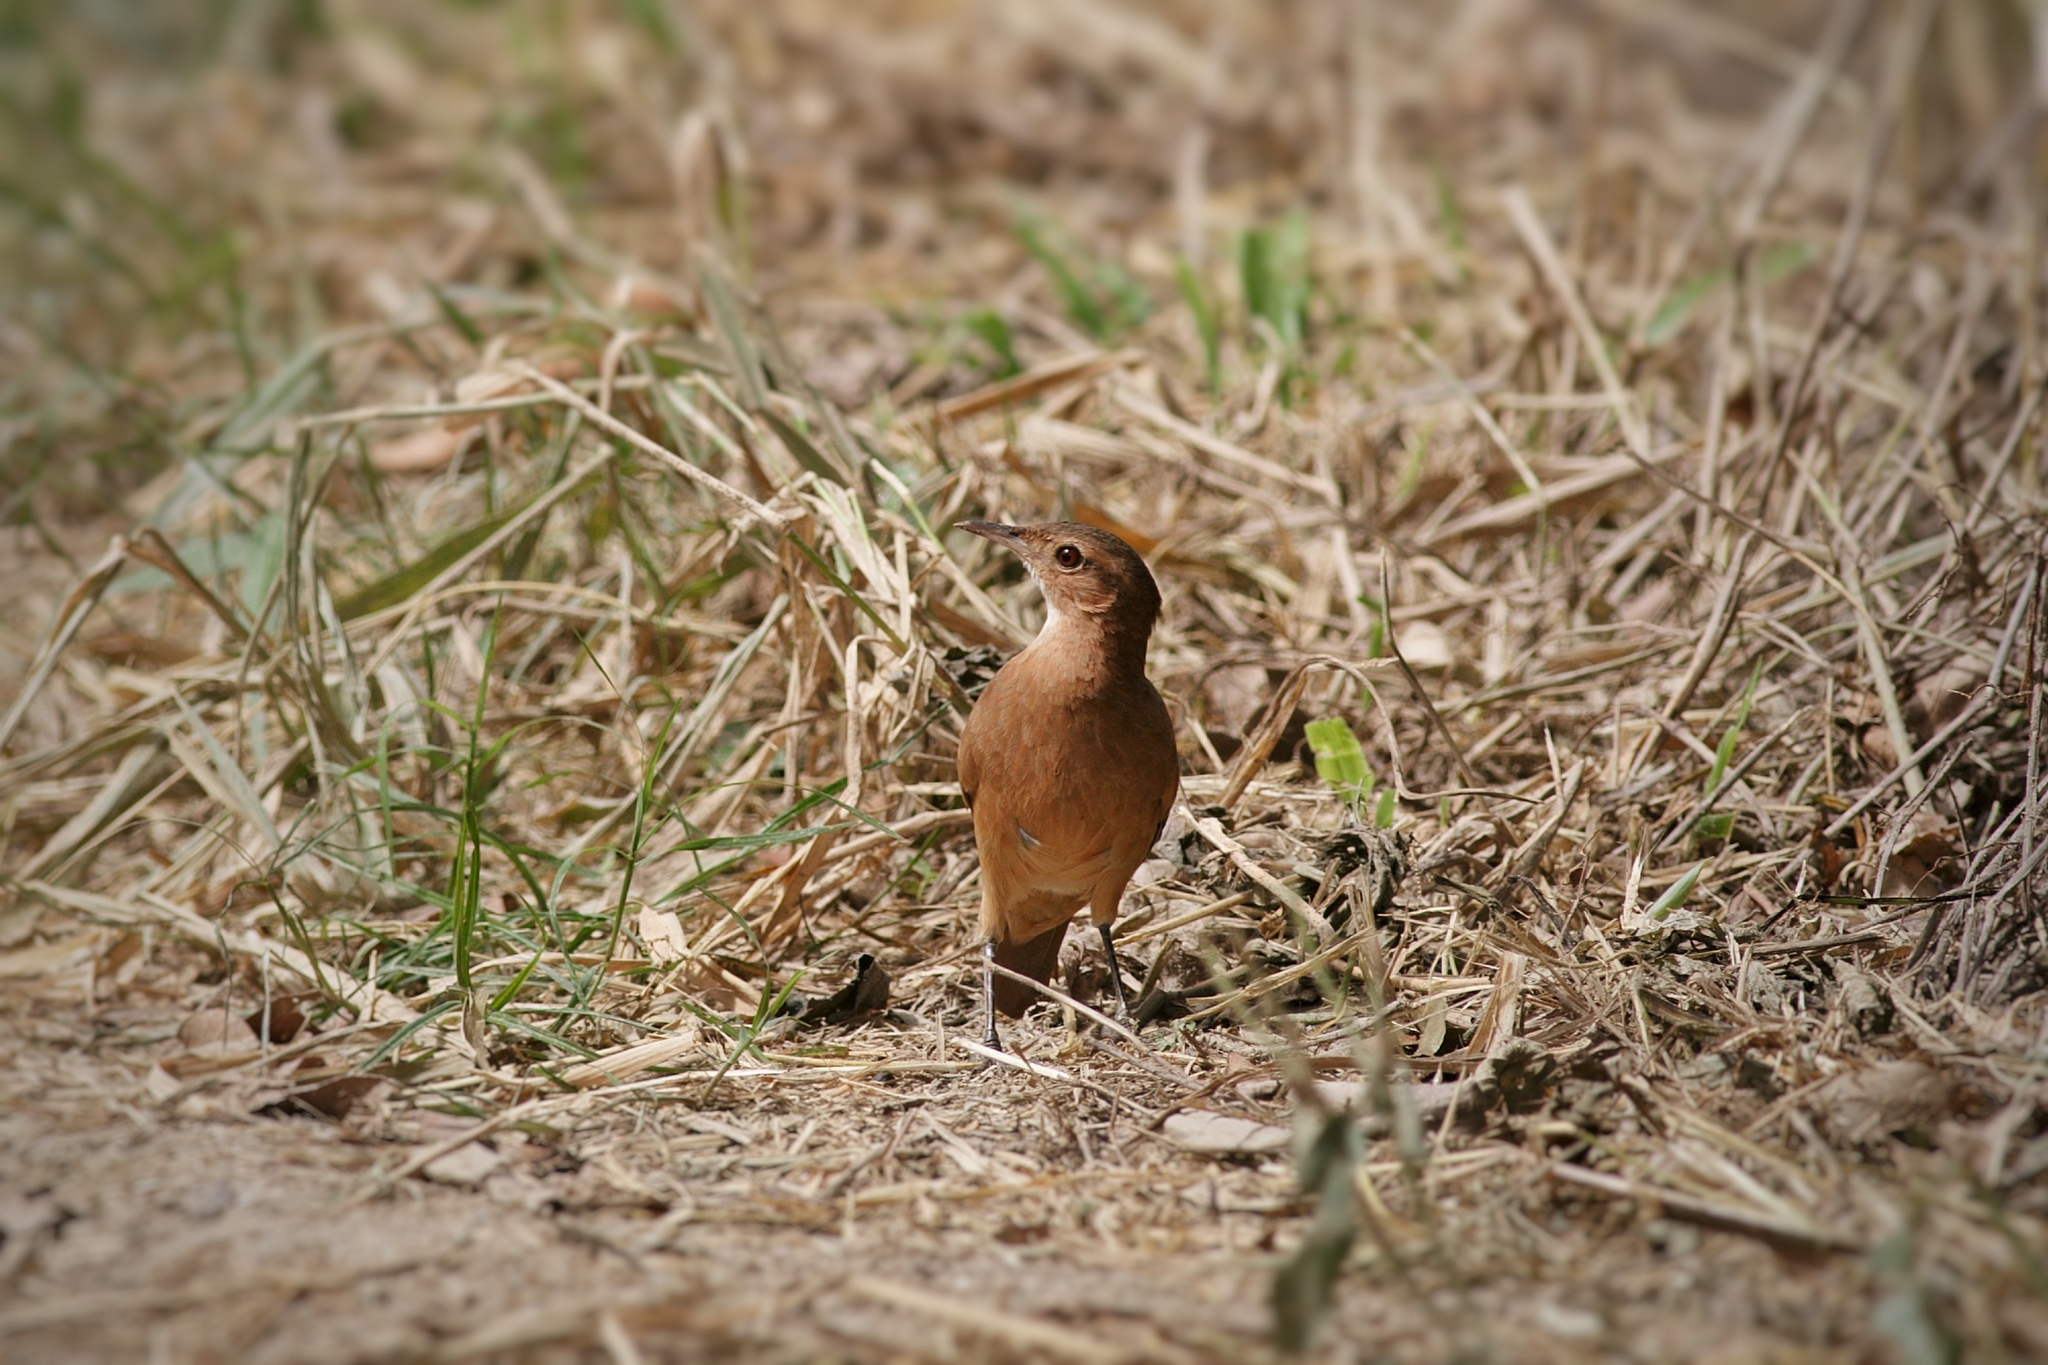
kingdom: Animalia
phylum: Chordata
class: Aves
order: Passeriformes
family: Furnariidae
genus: Furnarius
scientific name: Furnarius rufus
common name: Rufous hornero
